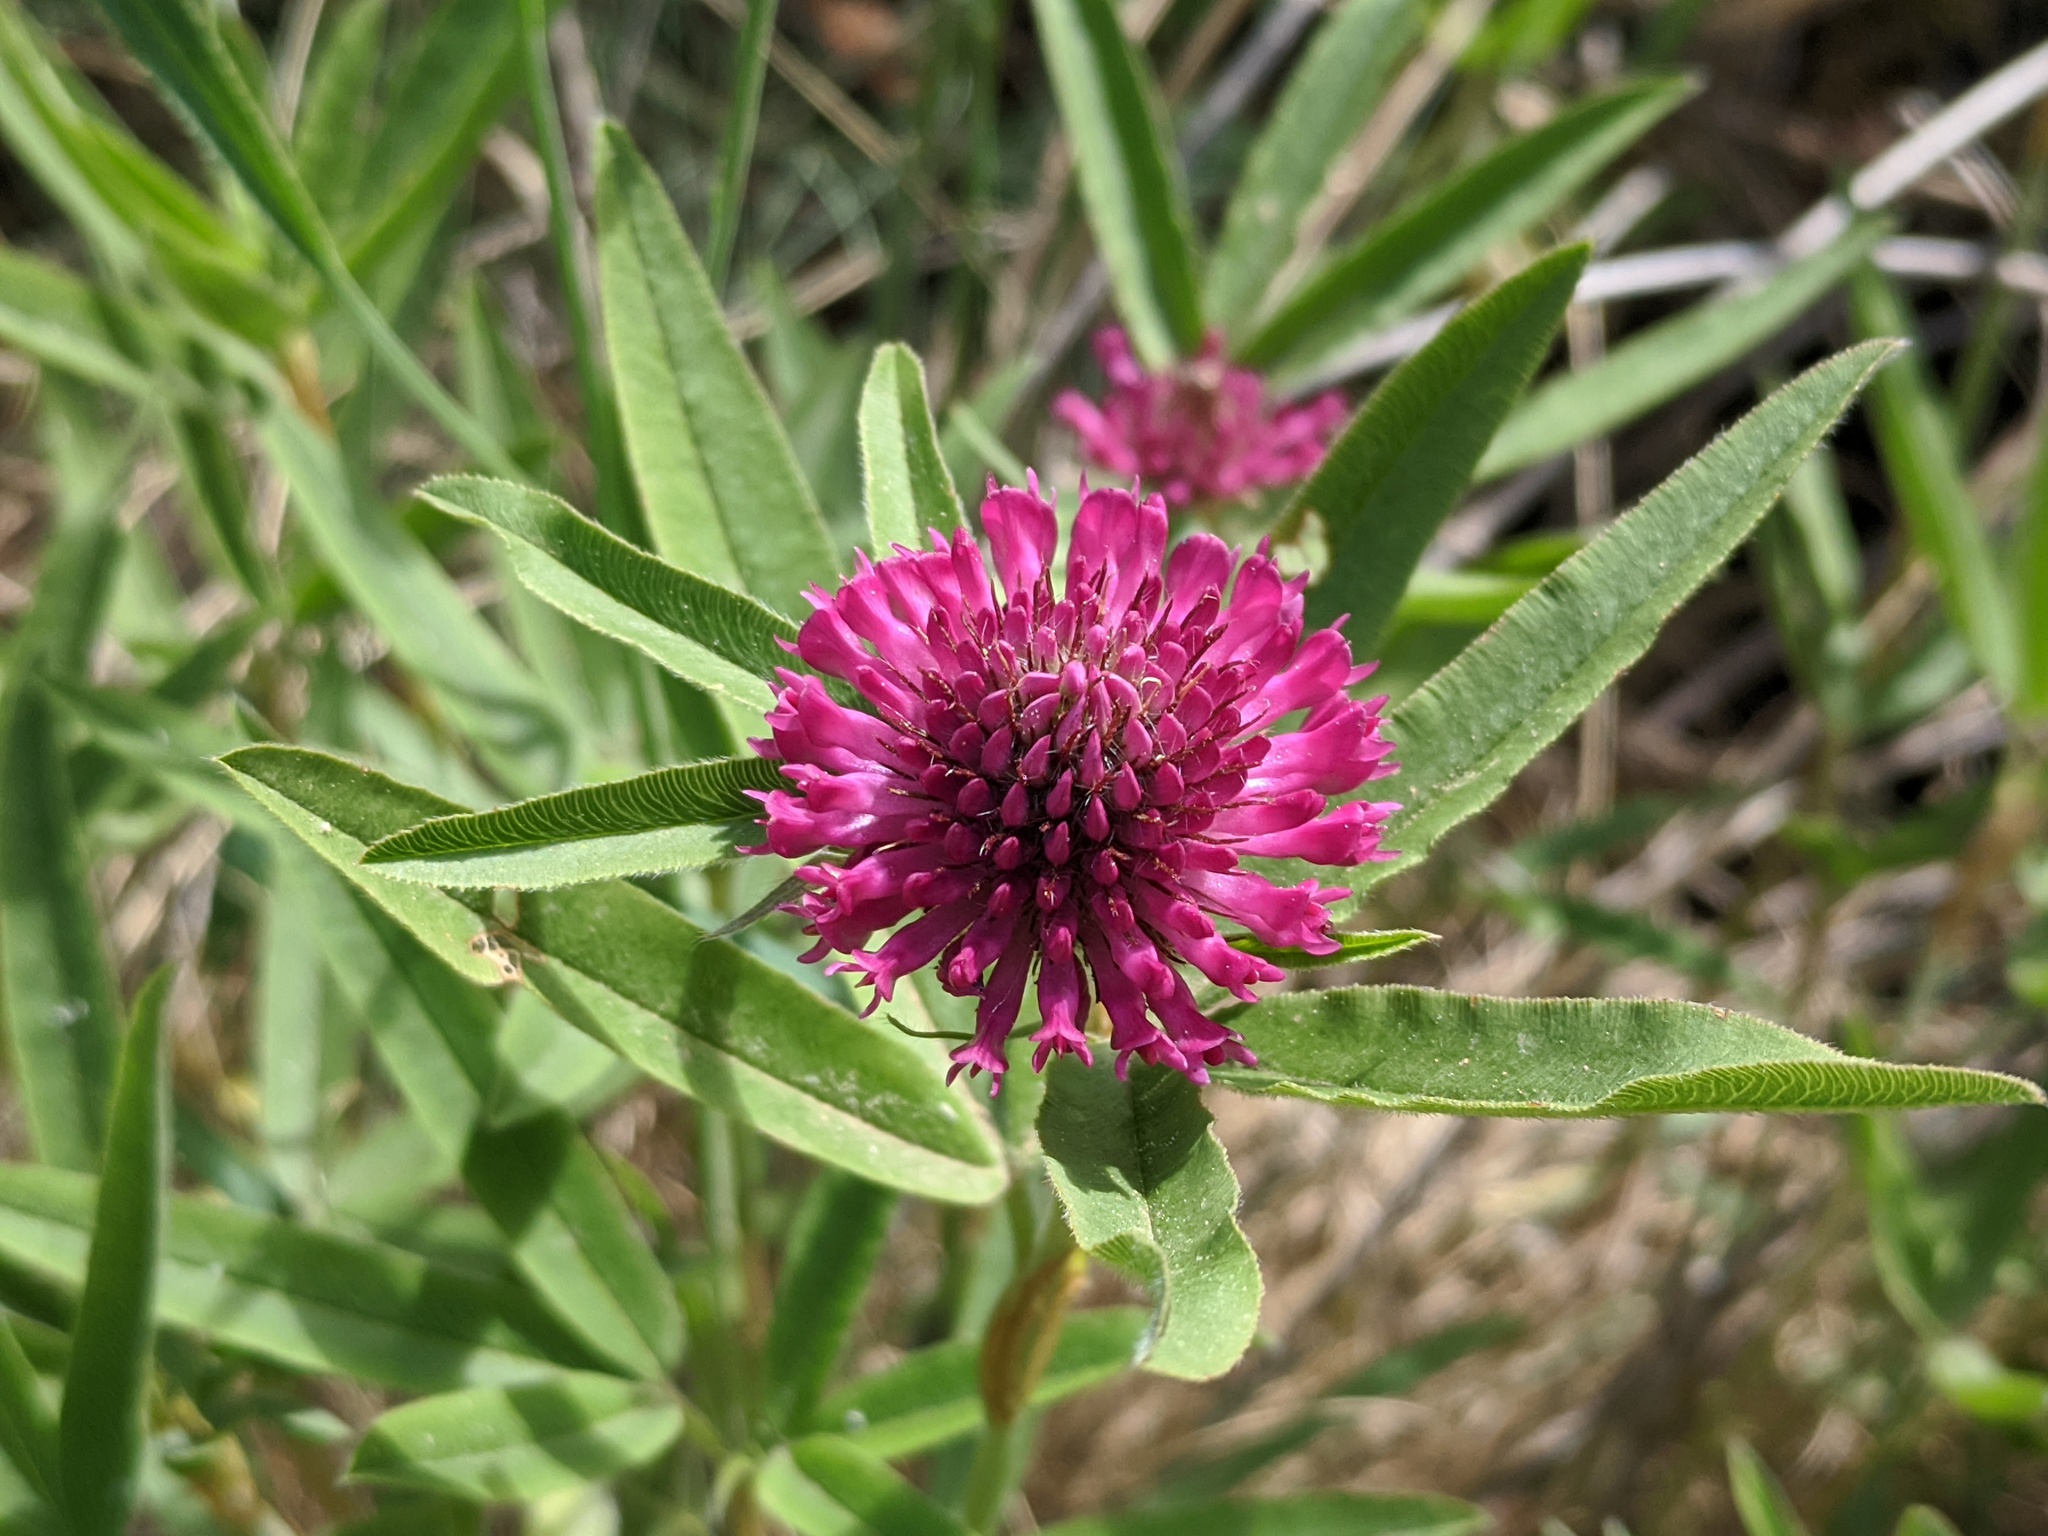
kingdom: Plantae
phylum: Tracheophyta
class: Magnoliopsida
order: Fabales
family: Fabaceae
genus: Trifolium
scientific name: Trifolium alpestre
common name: Owl-head clover
